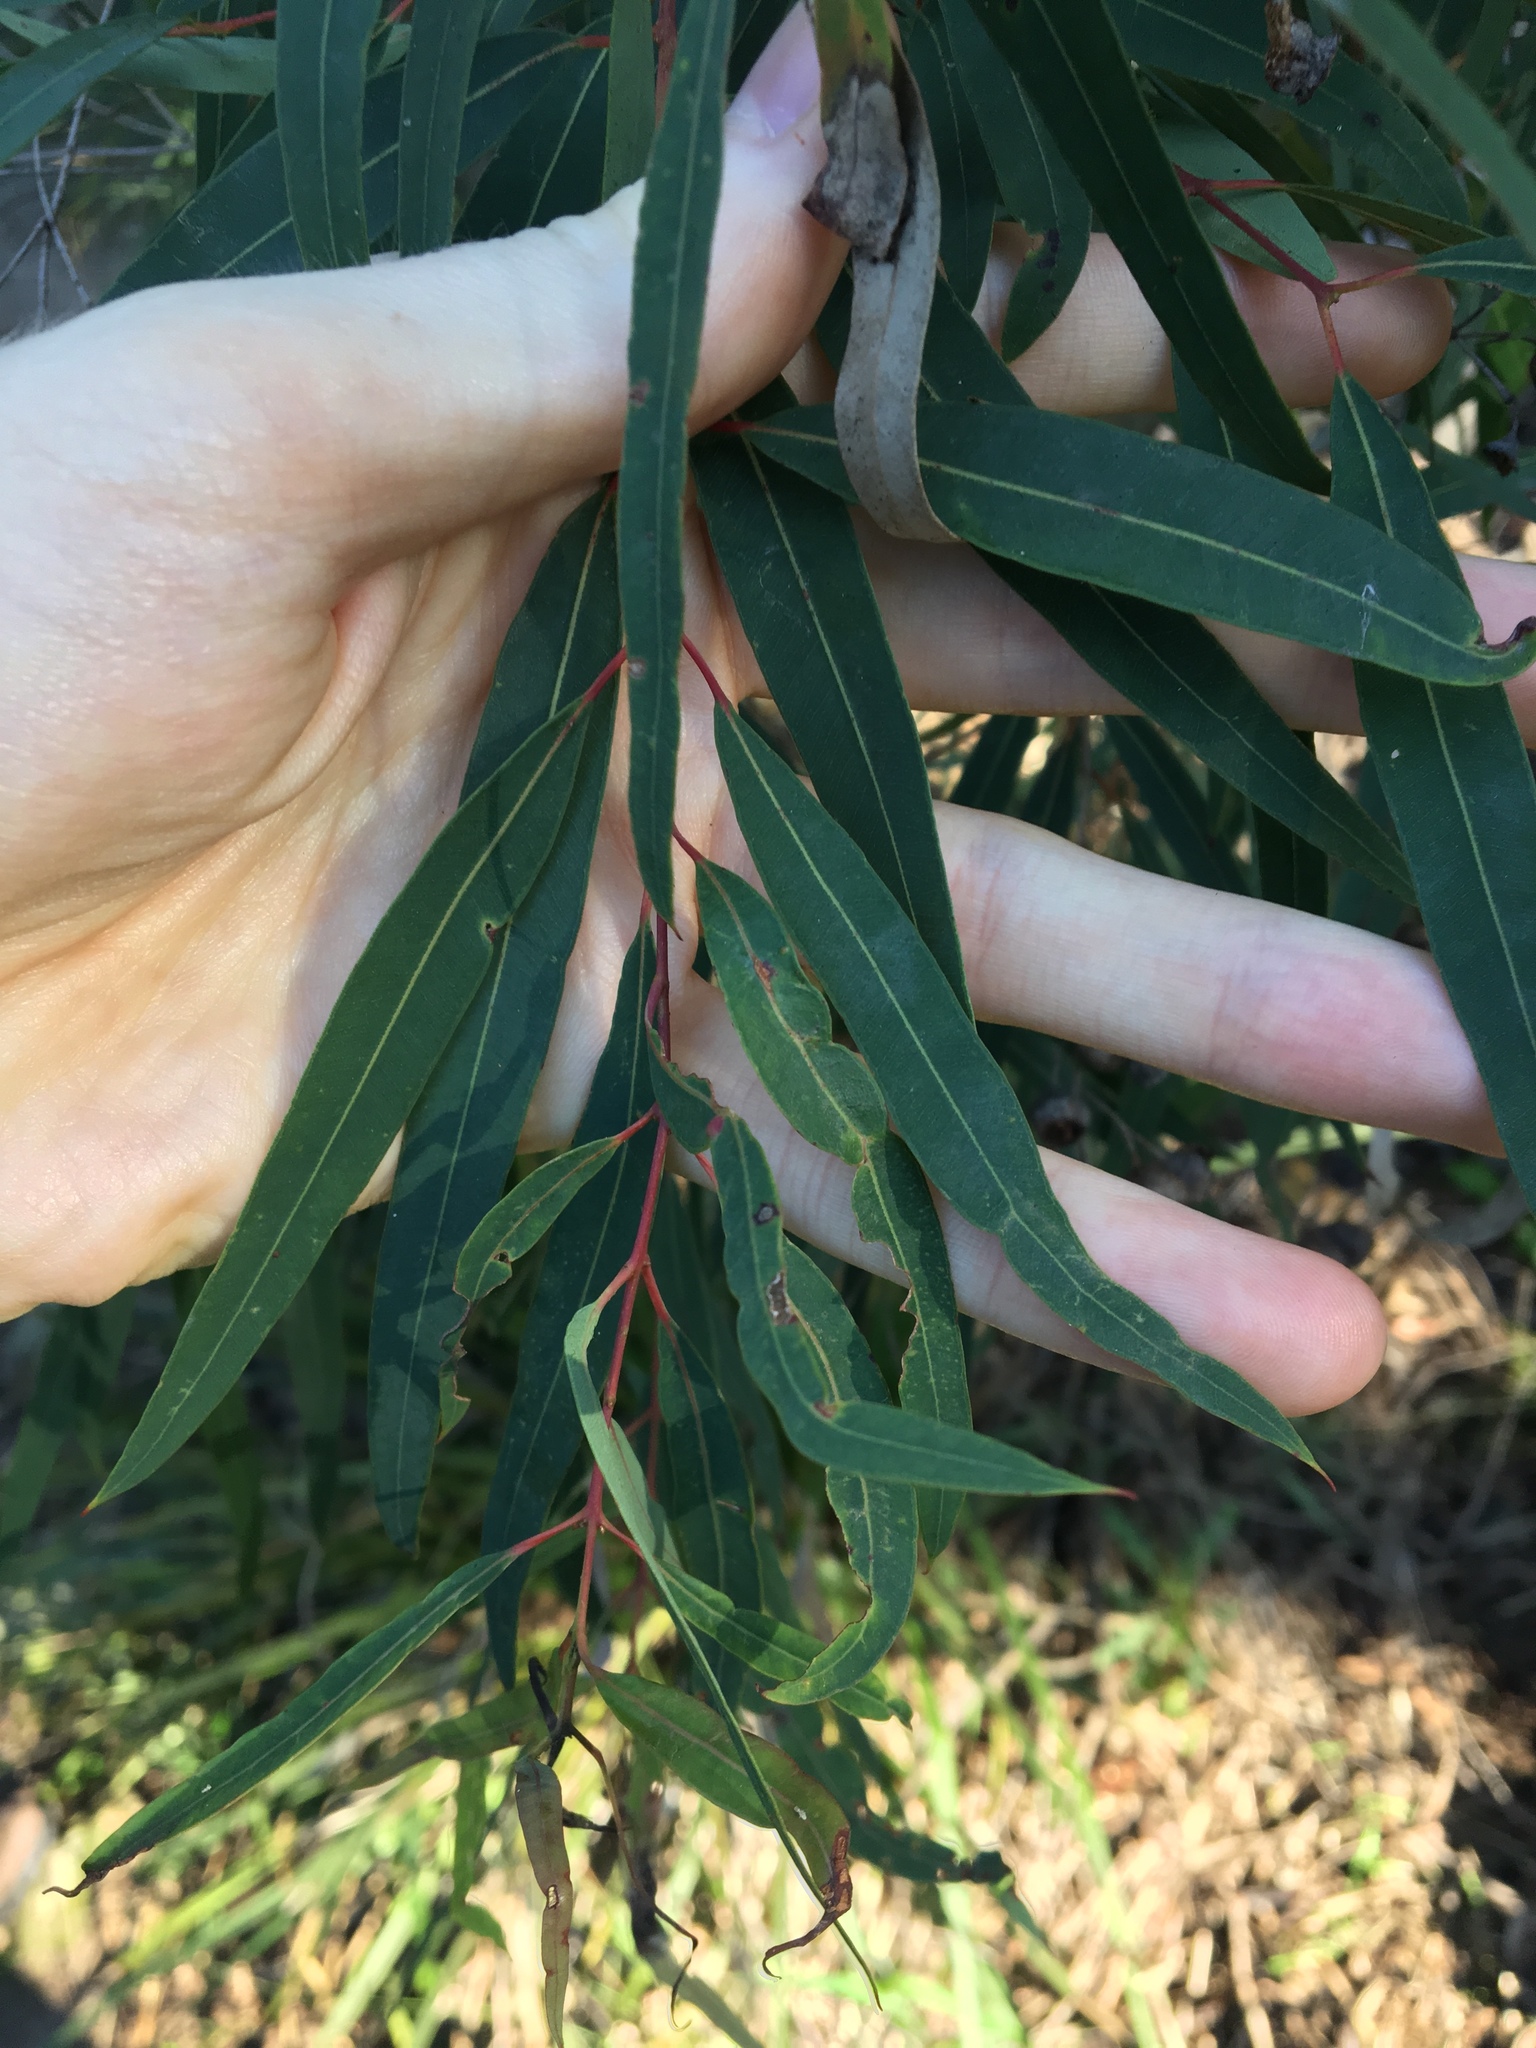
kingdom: Plantae
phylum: Tracheophyta
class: Magnoliopsida
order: Myrtales
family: Myrtaceae
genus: Angophora
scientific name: Angophora bakeri
